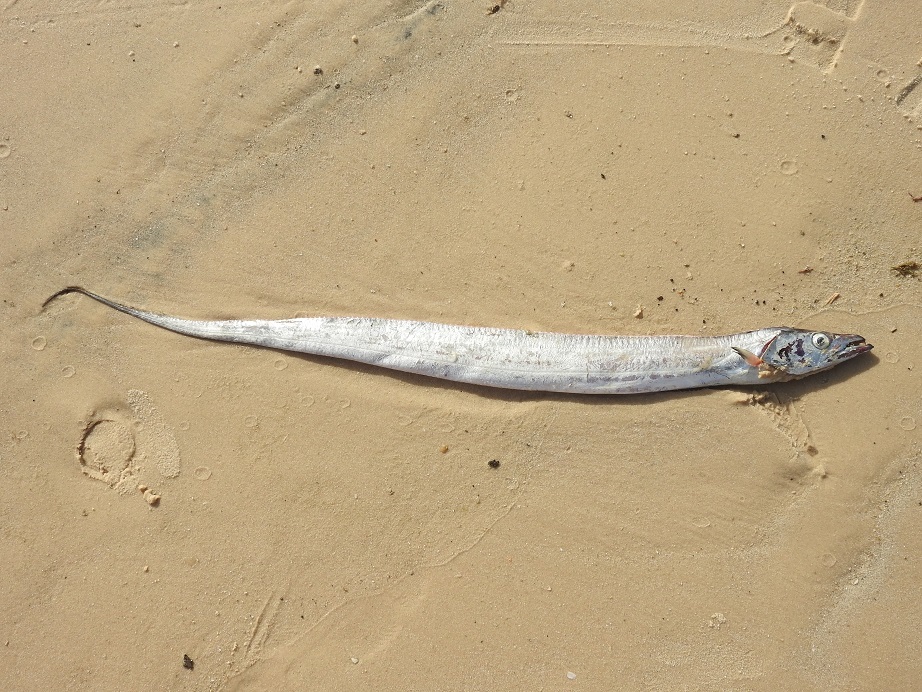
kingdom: Animalia
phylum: Chordata
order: Perciformes
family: Trichiuridae
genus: Trichiurus
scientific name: Trichiurus lepturus
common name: Largehead hairtail
